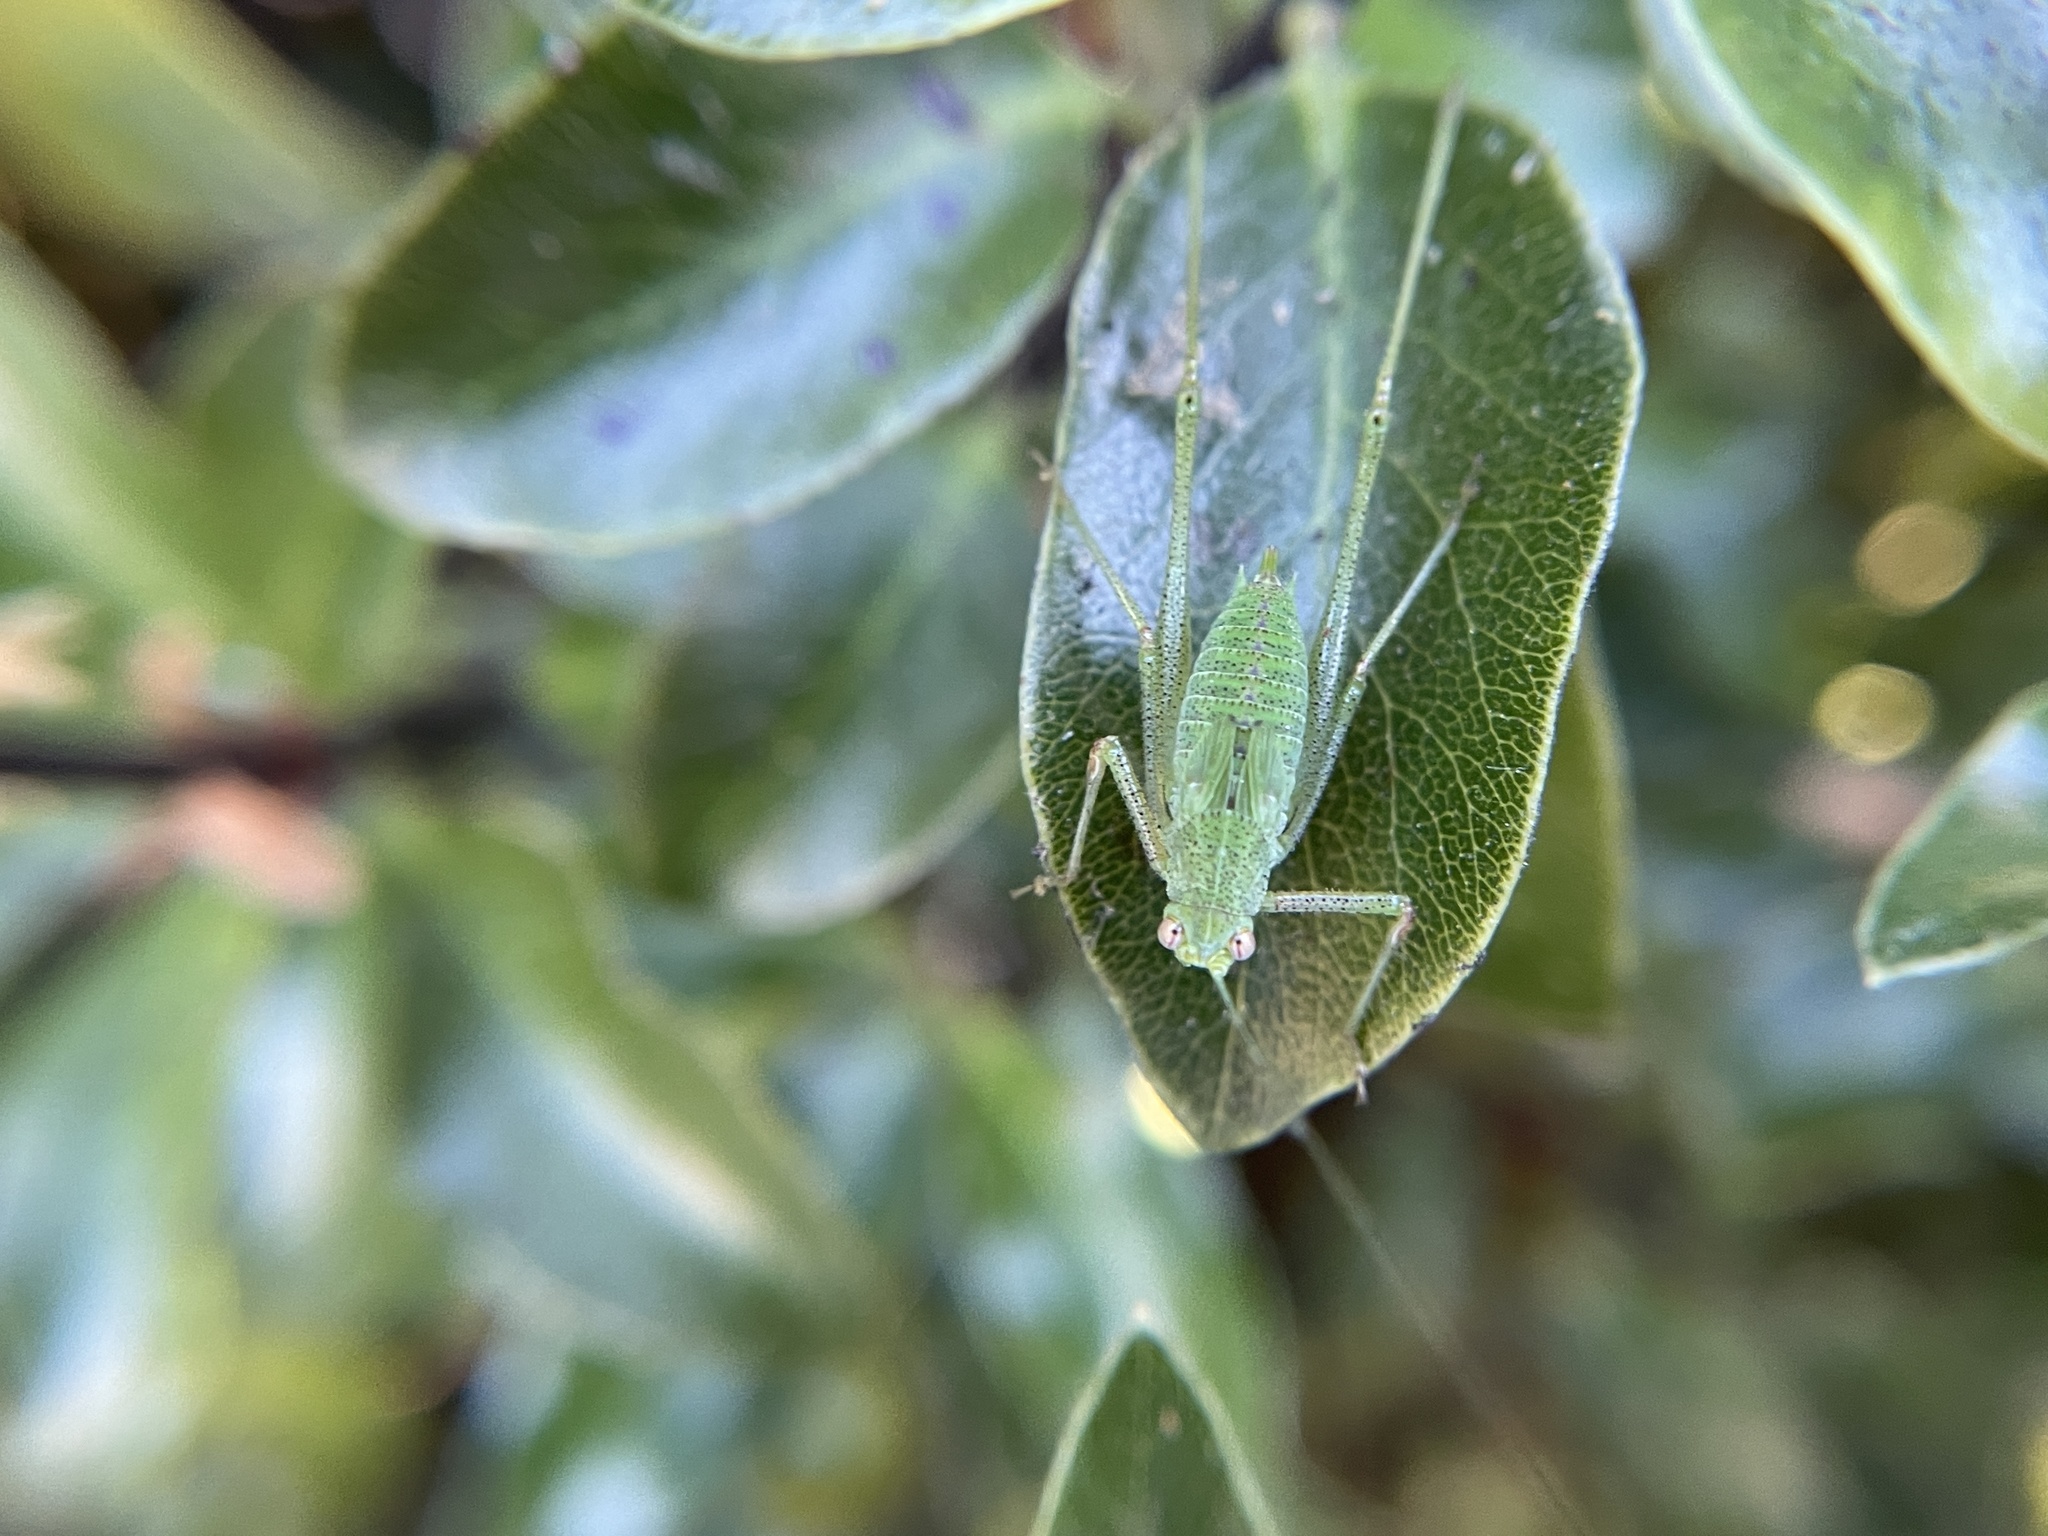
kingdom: Animalia
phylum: Arthropoda
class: Insecta
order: Orthoptera
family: Tettigoniidae
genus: Phaneroptera
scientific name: Phaneroptera nana
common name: Southern sickle bush-cricket
